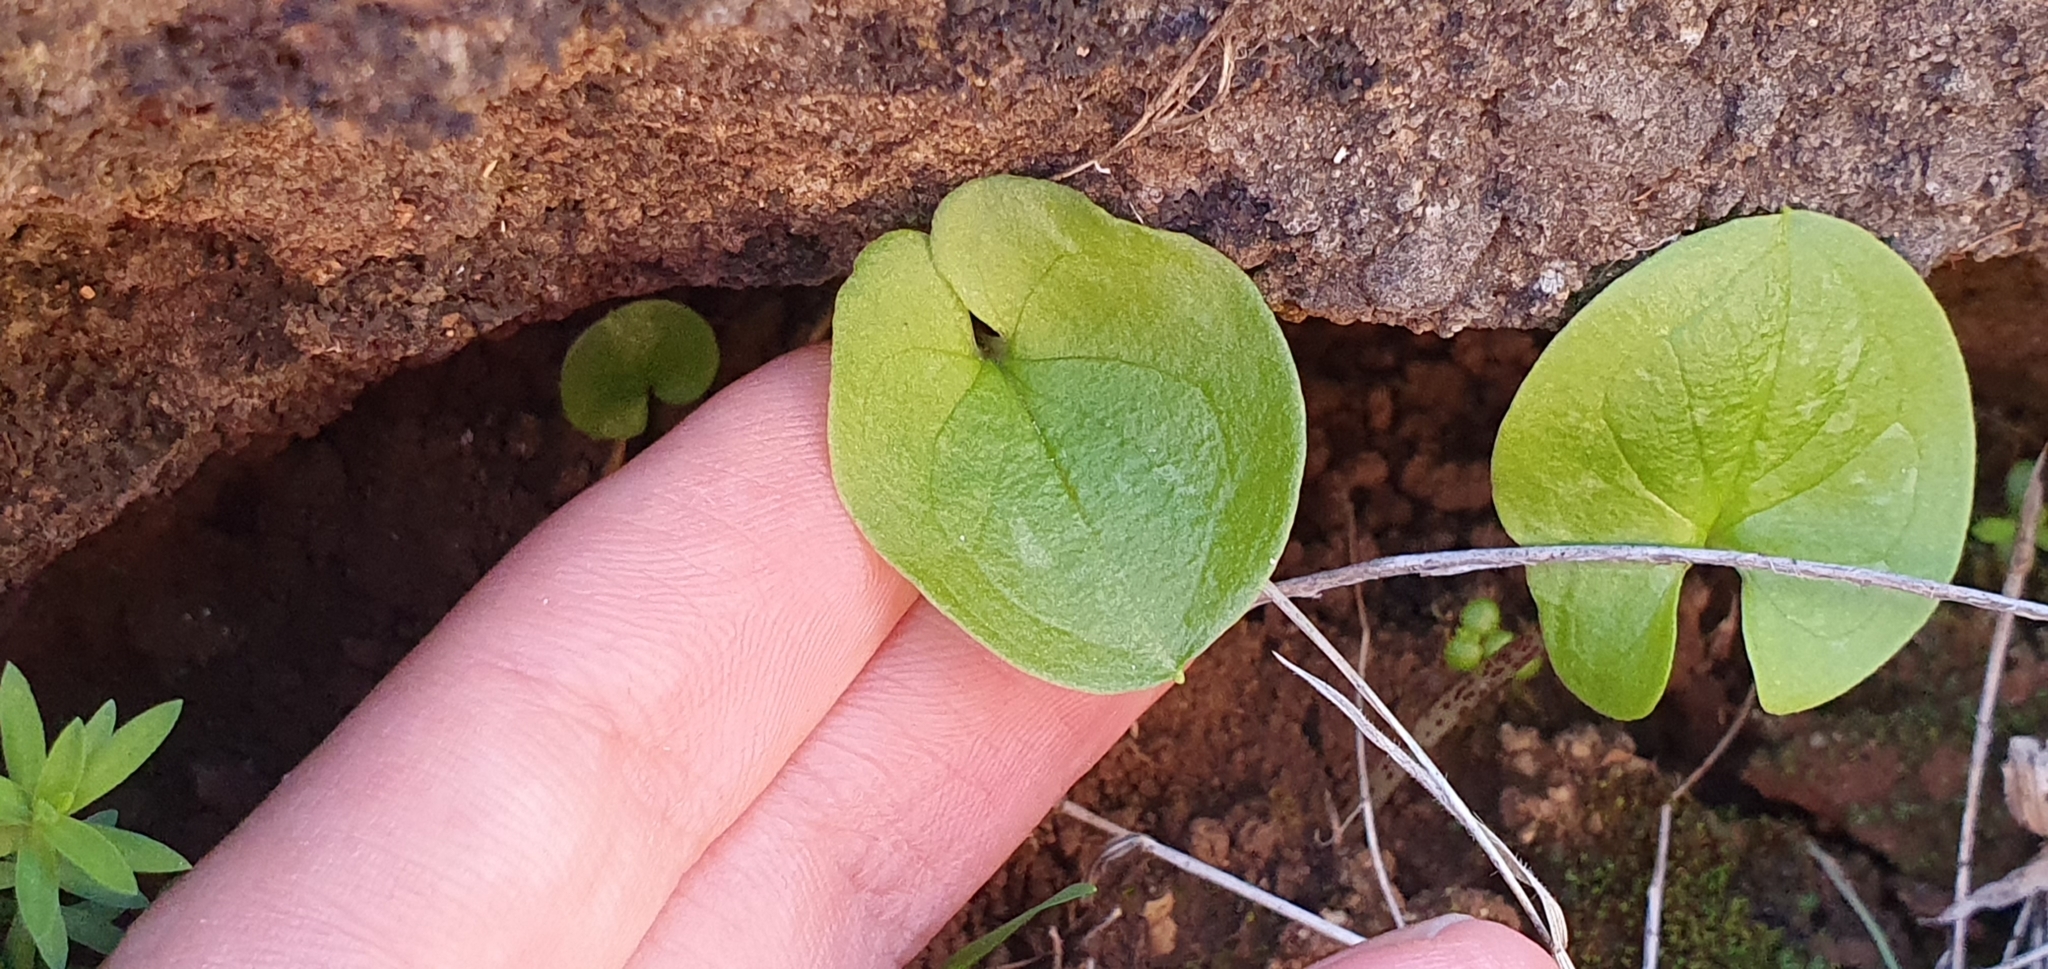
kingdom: Plantae
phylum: Tracheophyta
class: Liliopsida
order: Alismatales
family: Araceae
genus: Arisarum
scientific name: Arisarum vulgare
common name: Common arisarum
